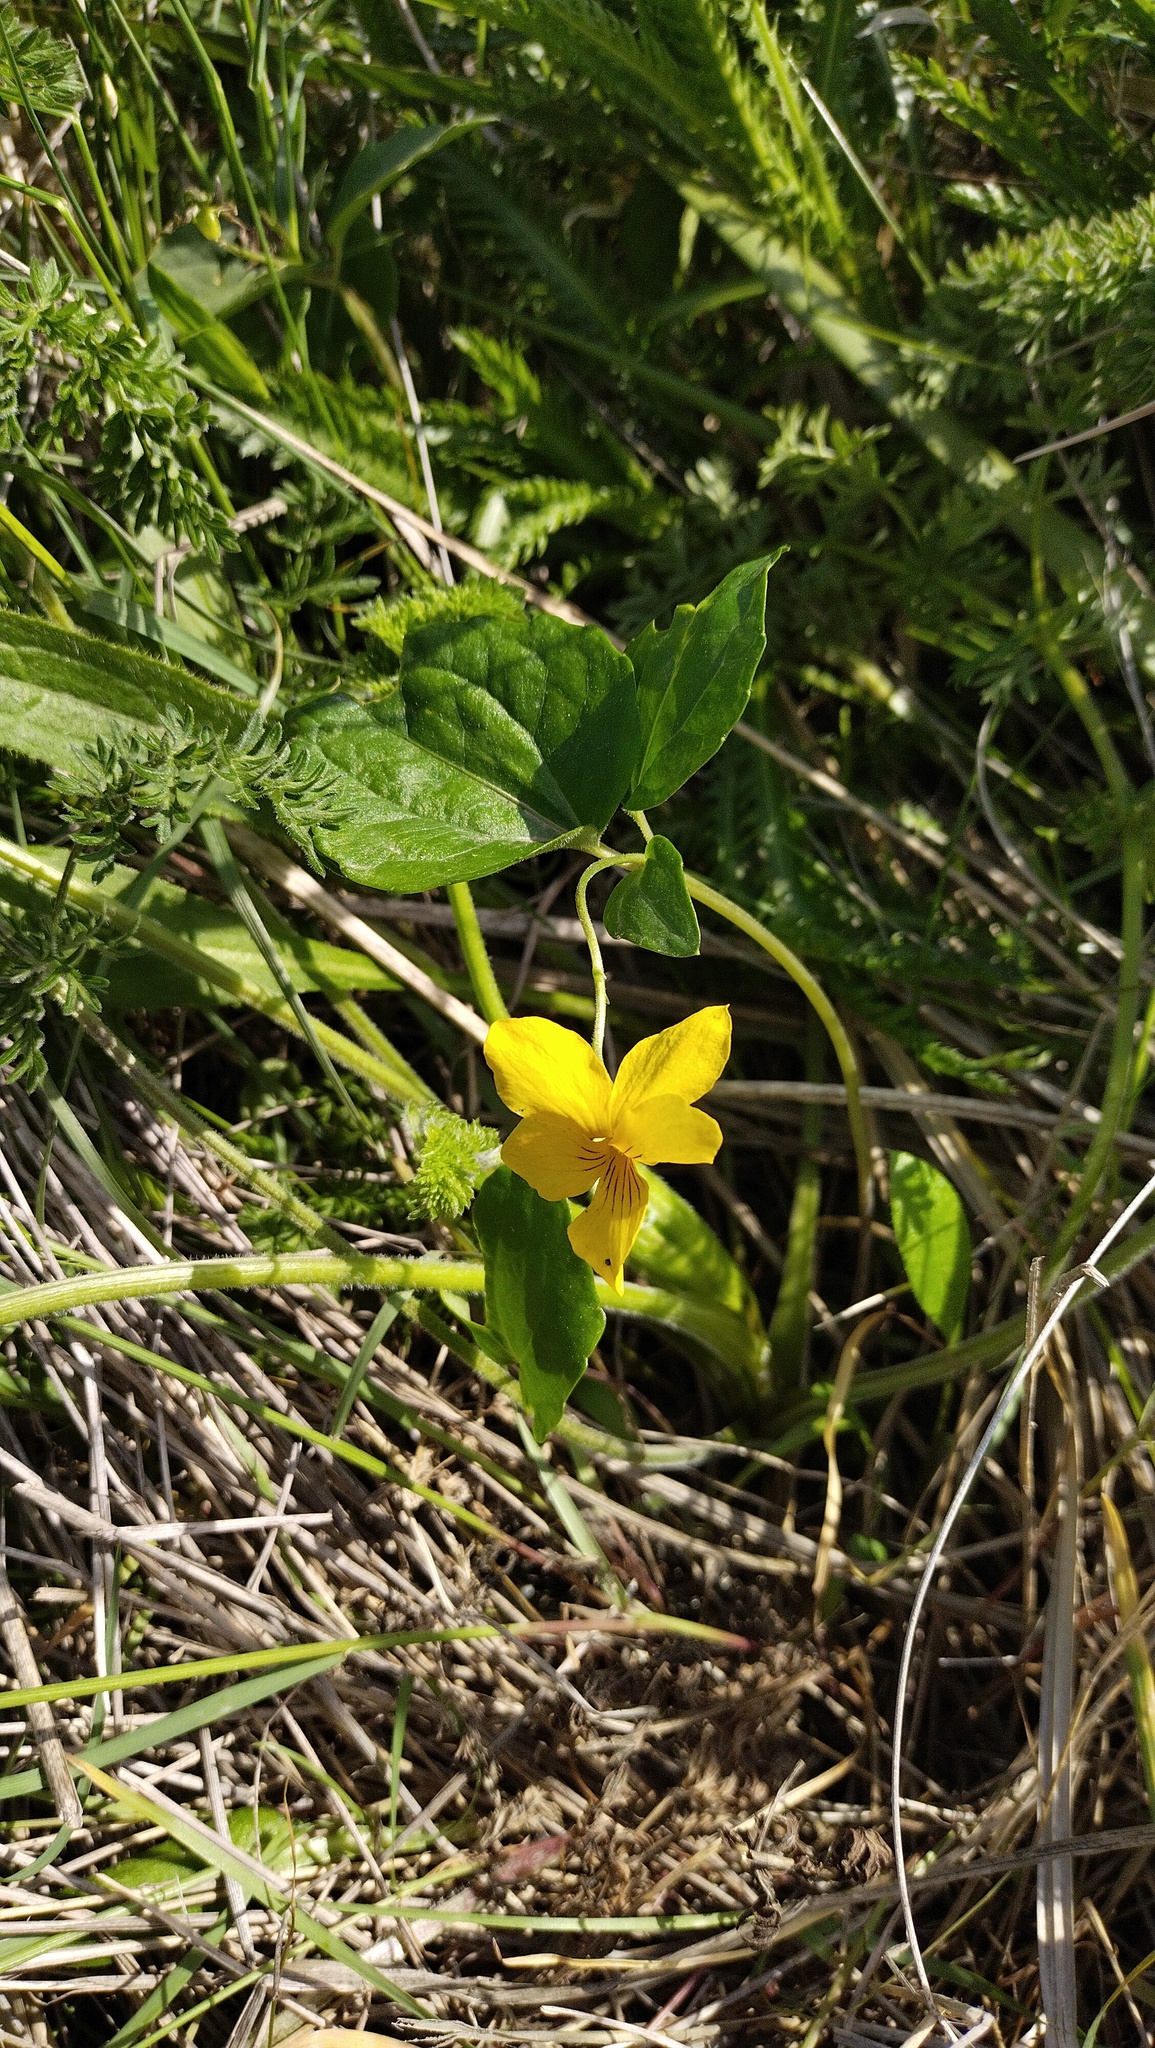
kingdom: Plantae
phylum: Tracheophyta
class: Magnoliopsida
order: Malpighiales
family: Violaceae
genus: Viola
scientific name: Viola orientalis
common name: Golden violet
